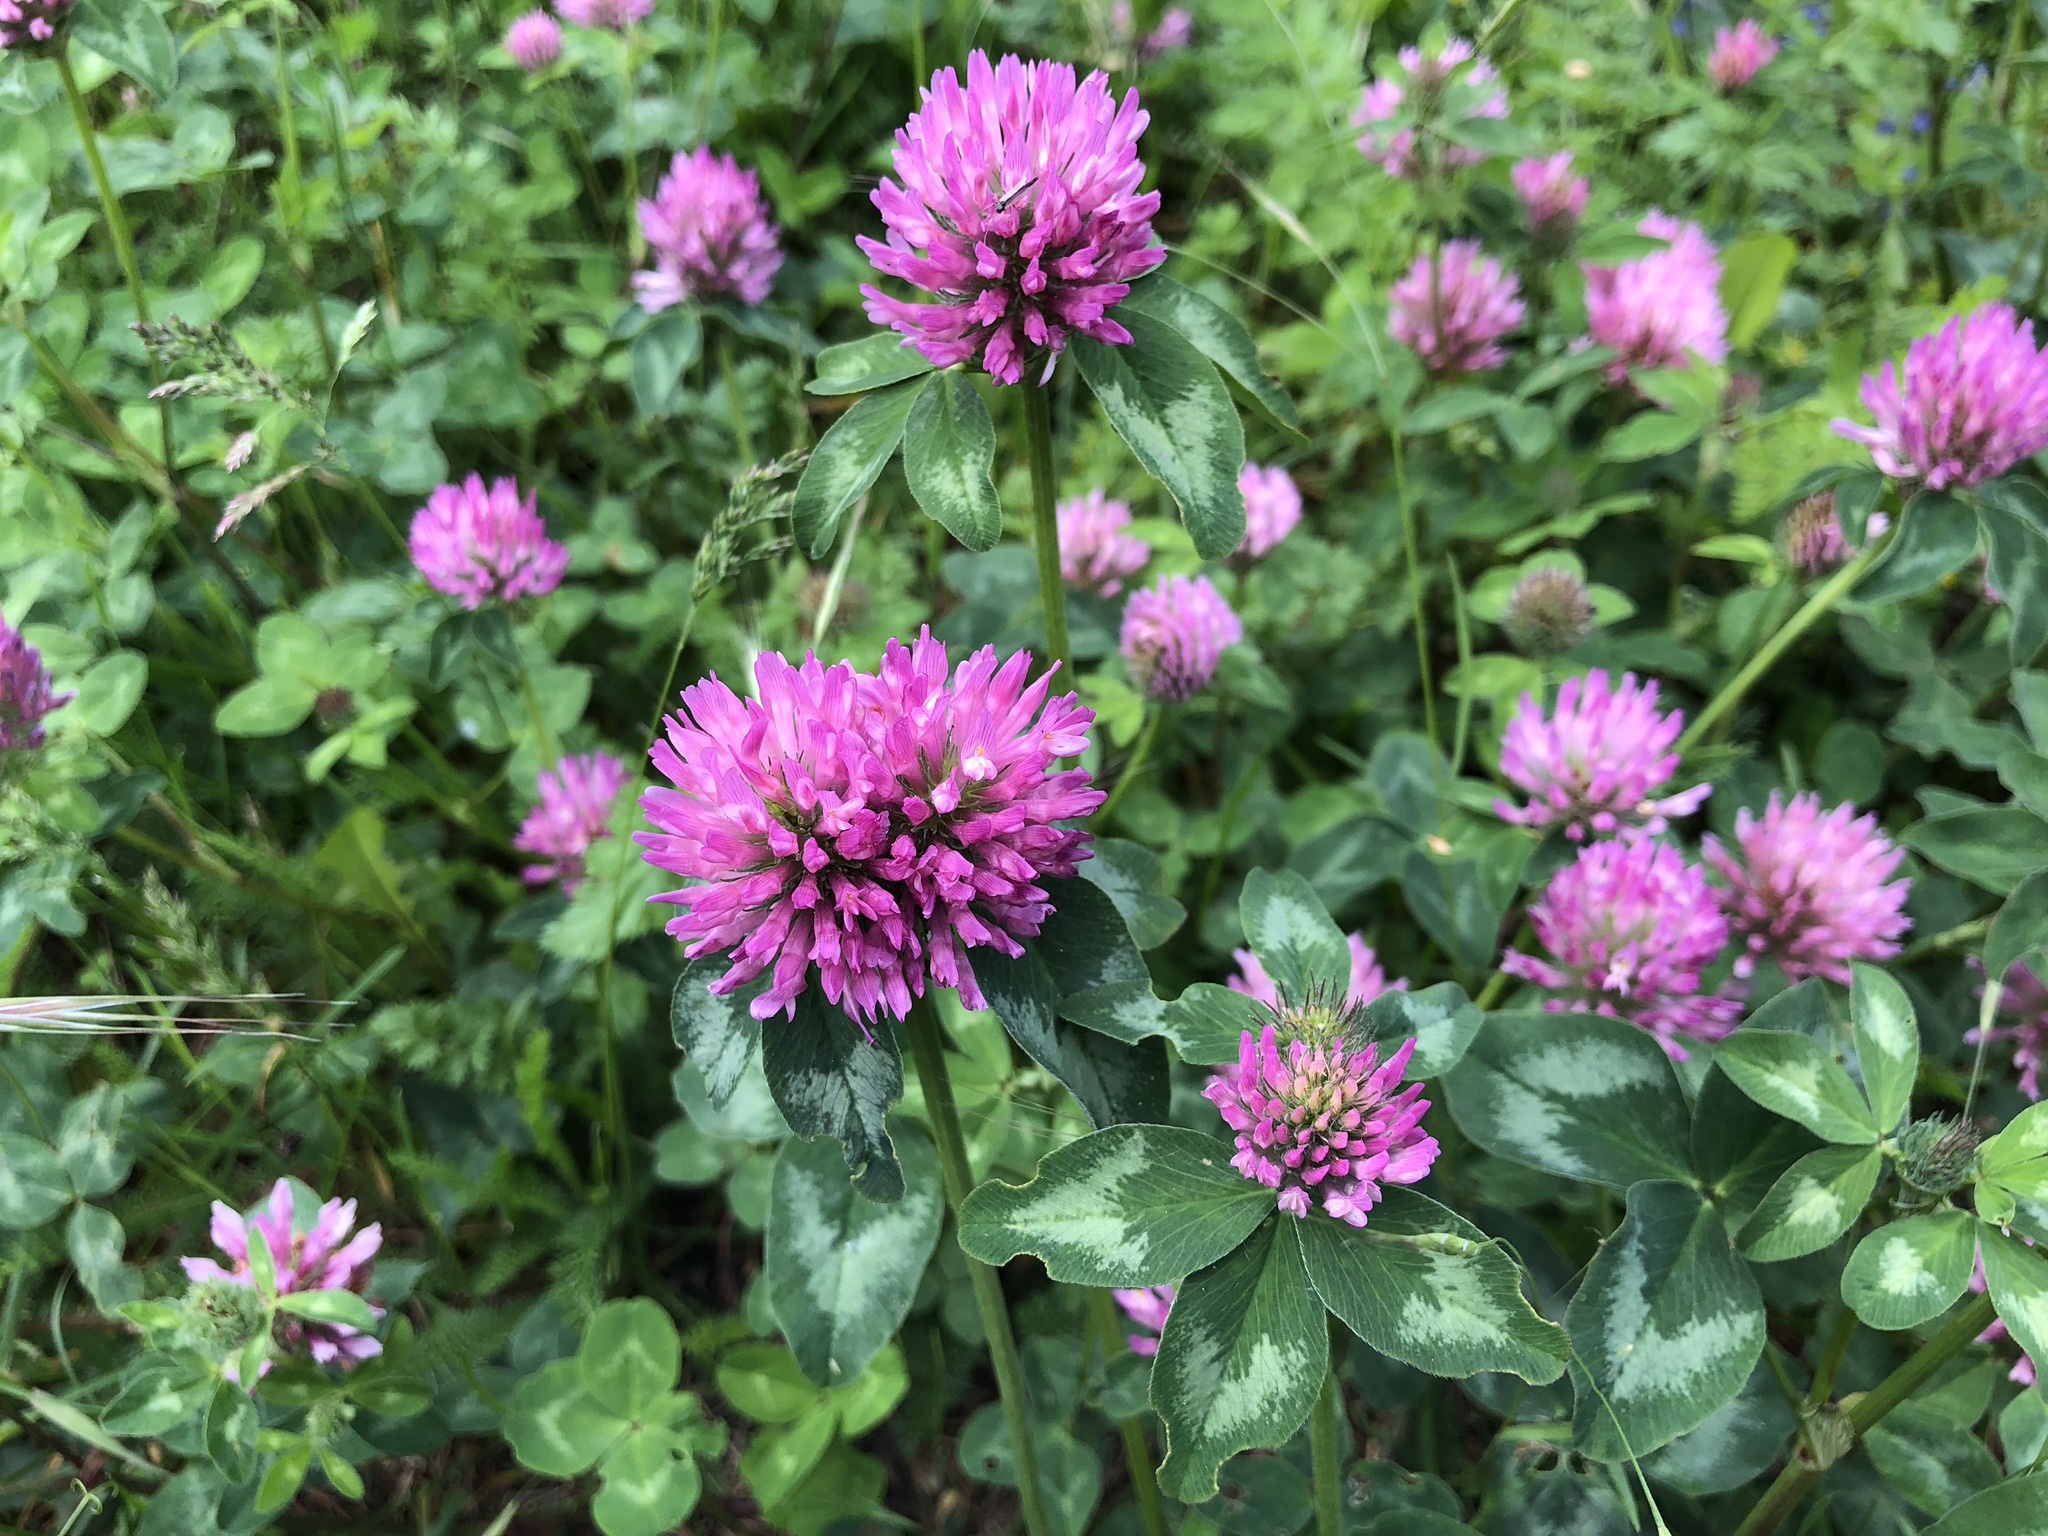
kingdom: Plantae
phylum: Tracheophyta
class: Magnoliopsida
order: Fabales
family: Fabaceae
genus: Trifolium
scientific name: Trifolium pratense
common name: Red clover
